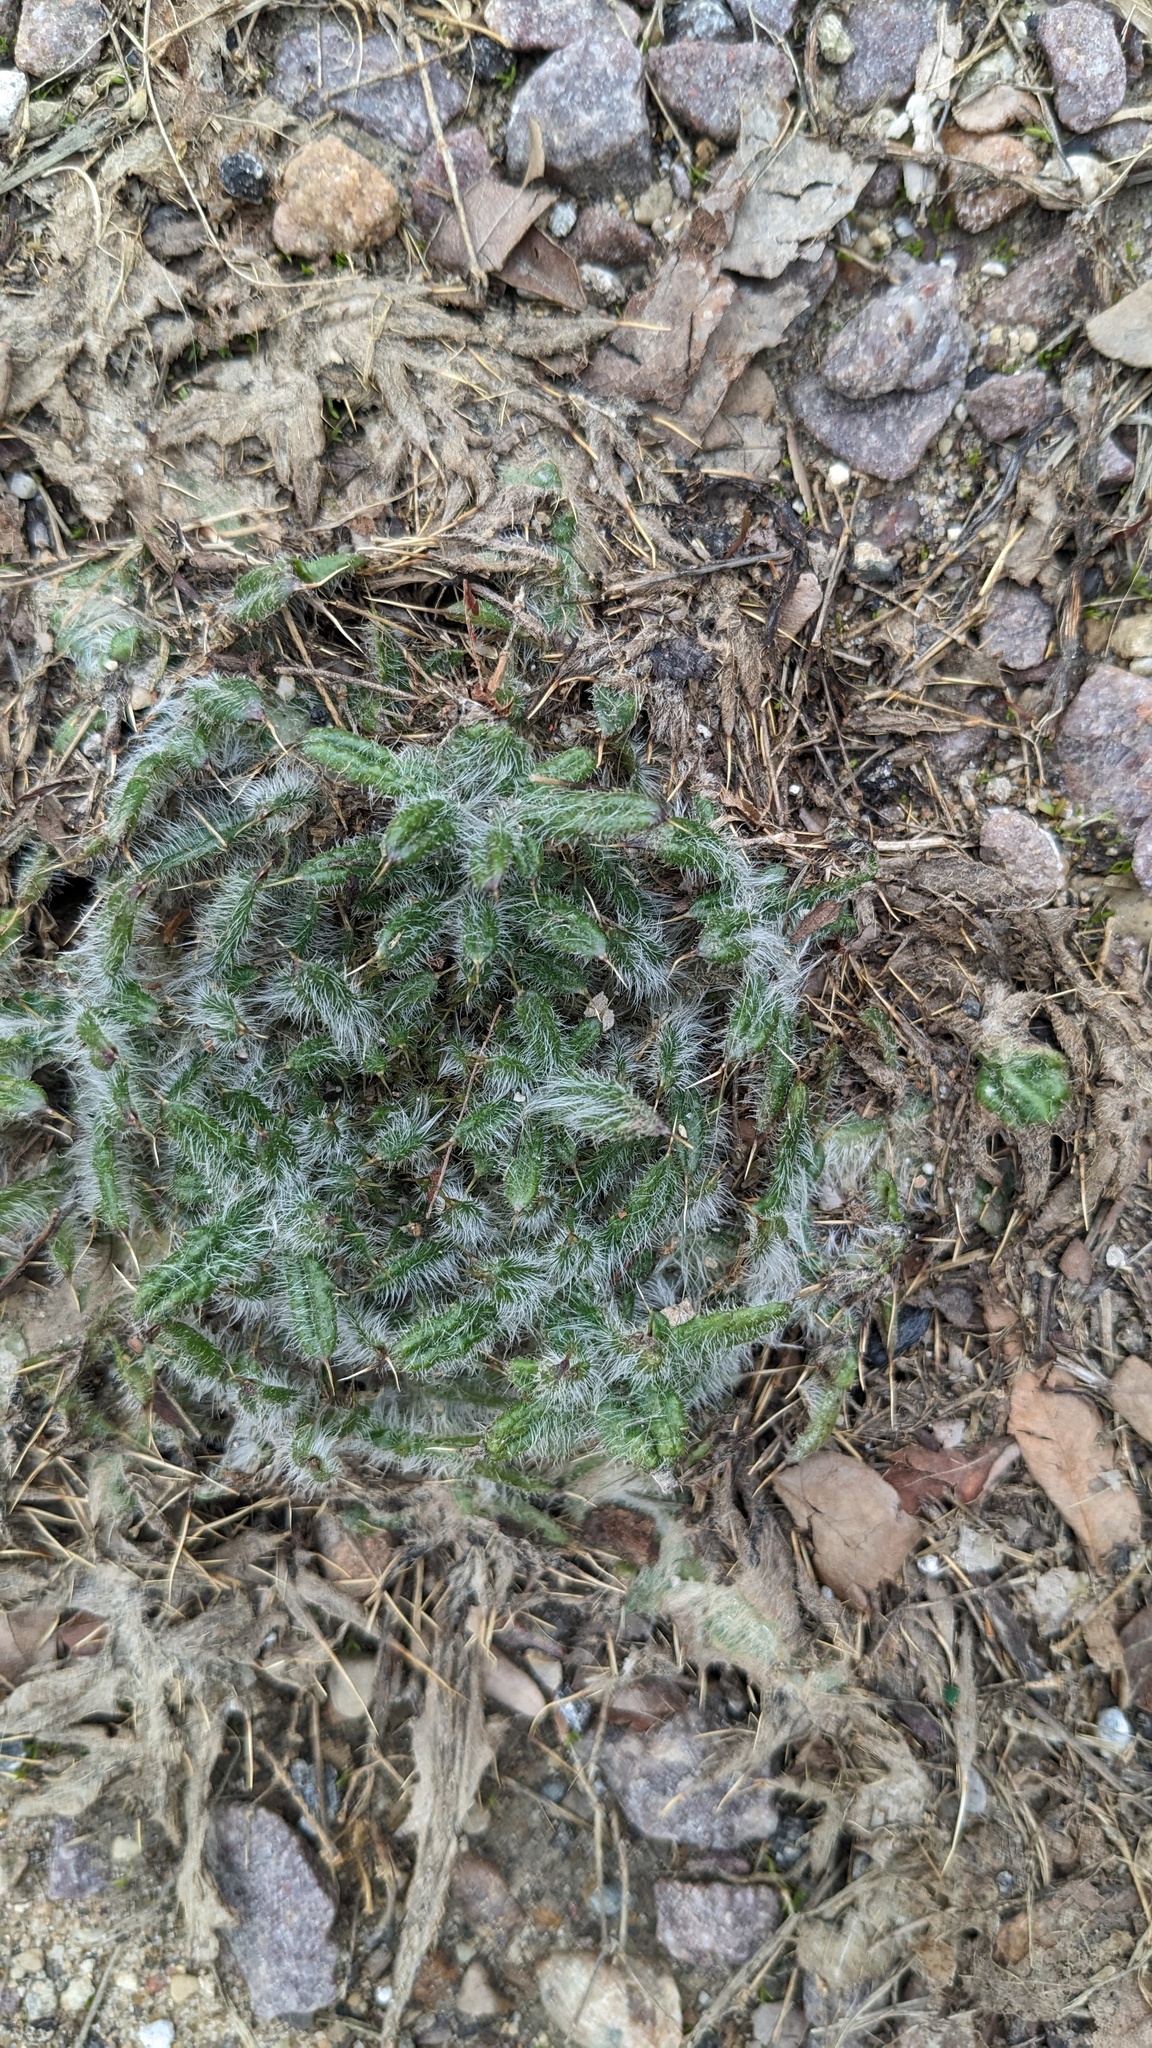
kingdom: Plantae
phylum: Tracheophyta
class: Magnoliopsida
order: Asterales
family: Asteraceae
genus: Cirsium
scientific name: Cirsium vulgare
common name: Bull thistle
